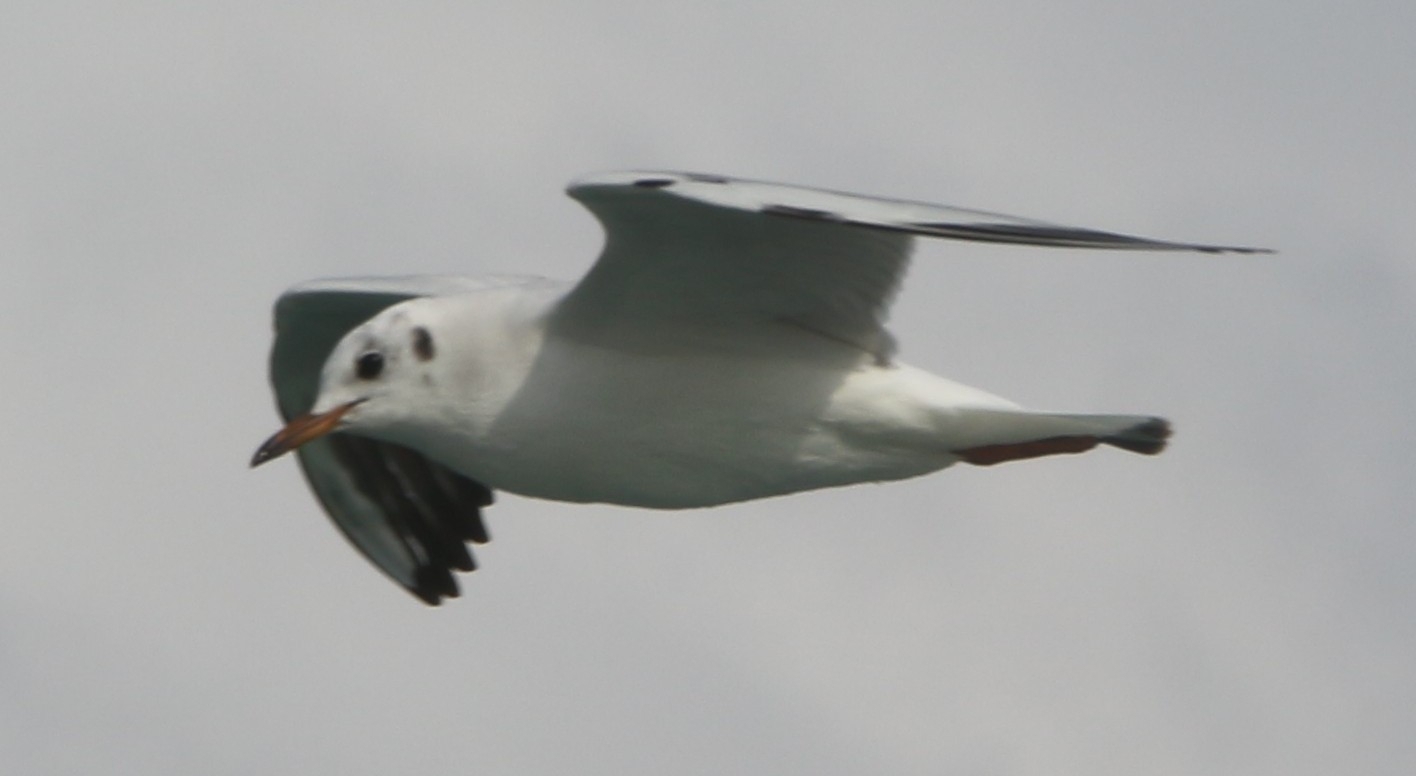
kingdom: Animalia
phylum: Chordata
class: Aves
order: Charadriiformes
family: Laridae
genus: Chroicocephalus
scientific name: Chroicocephalus ridibundus
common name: Black-headed gull
